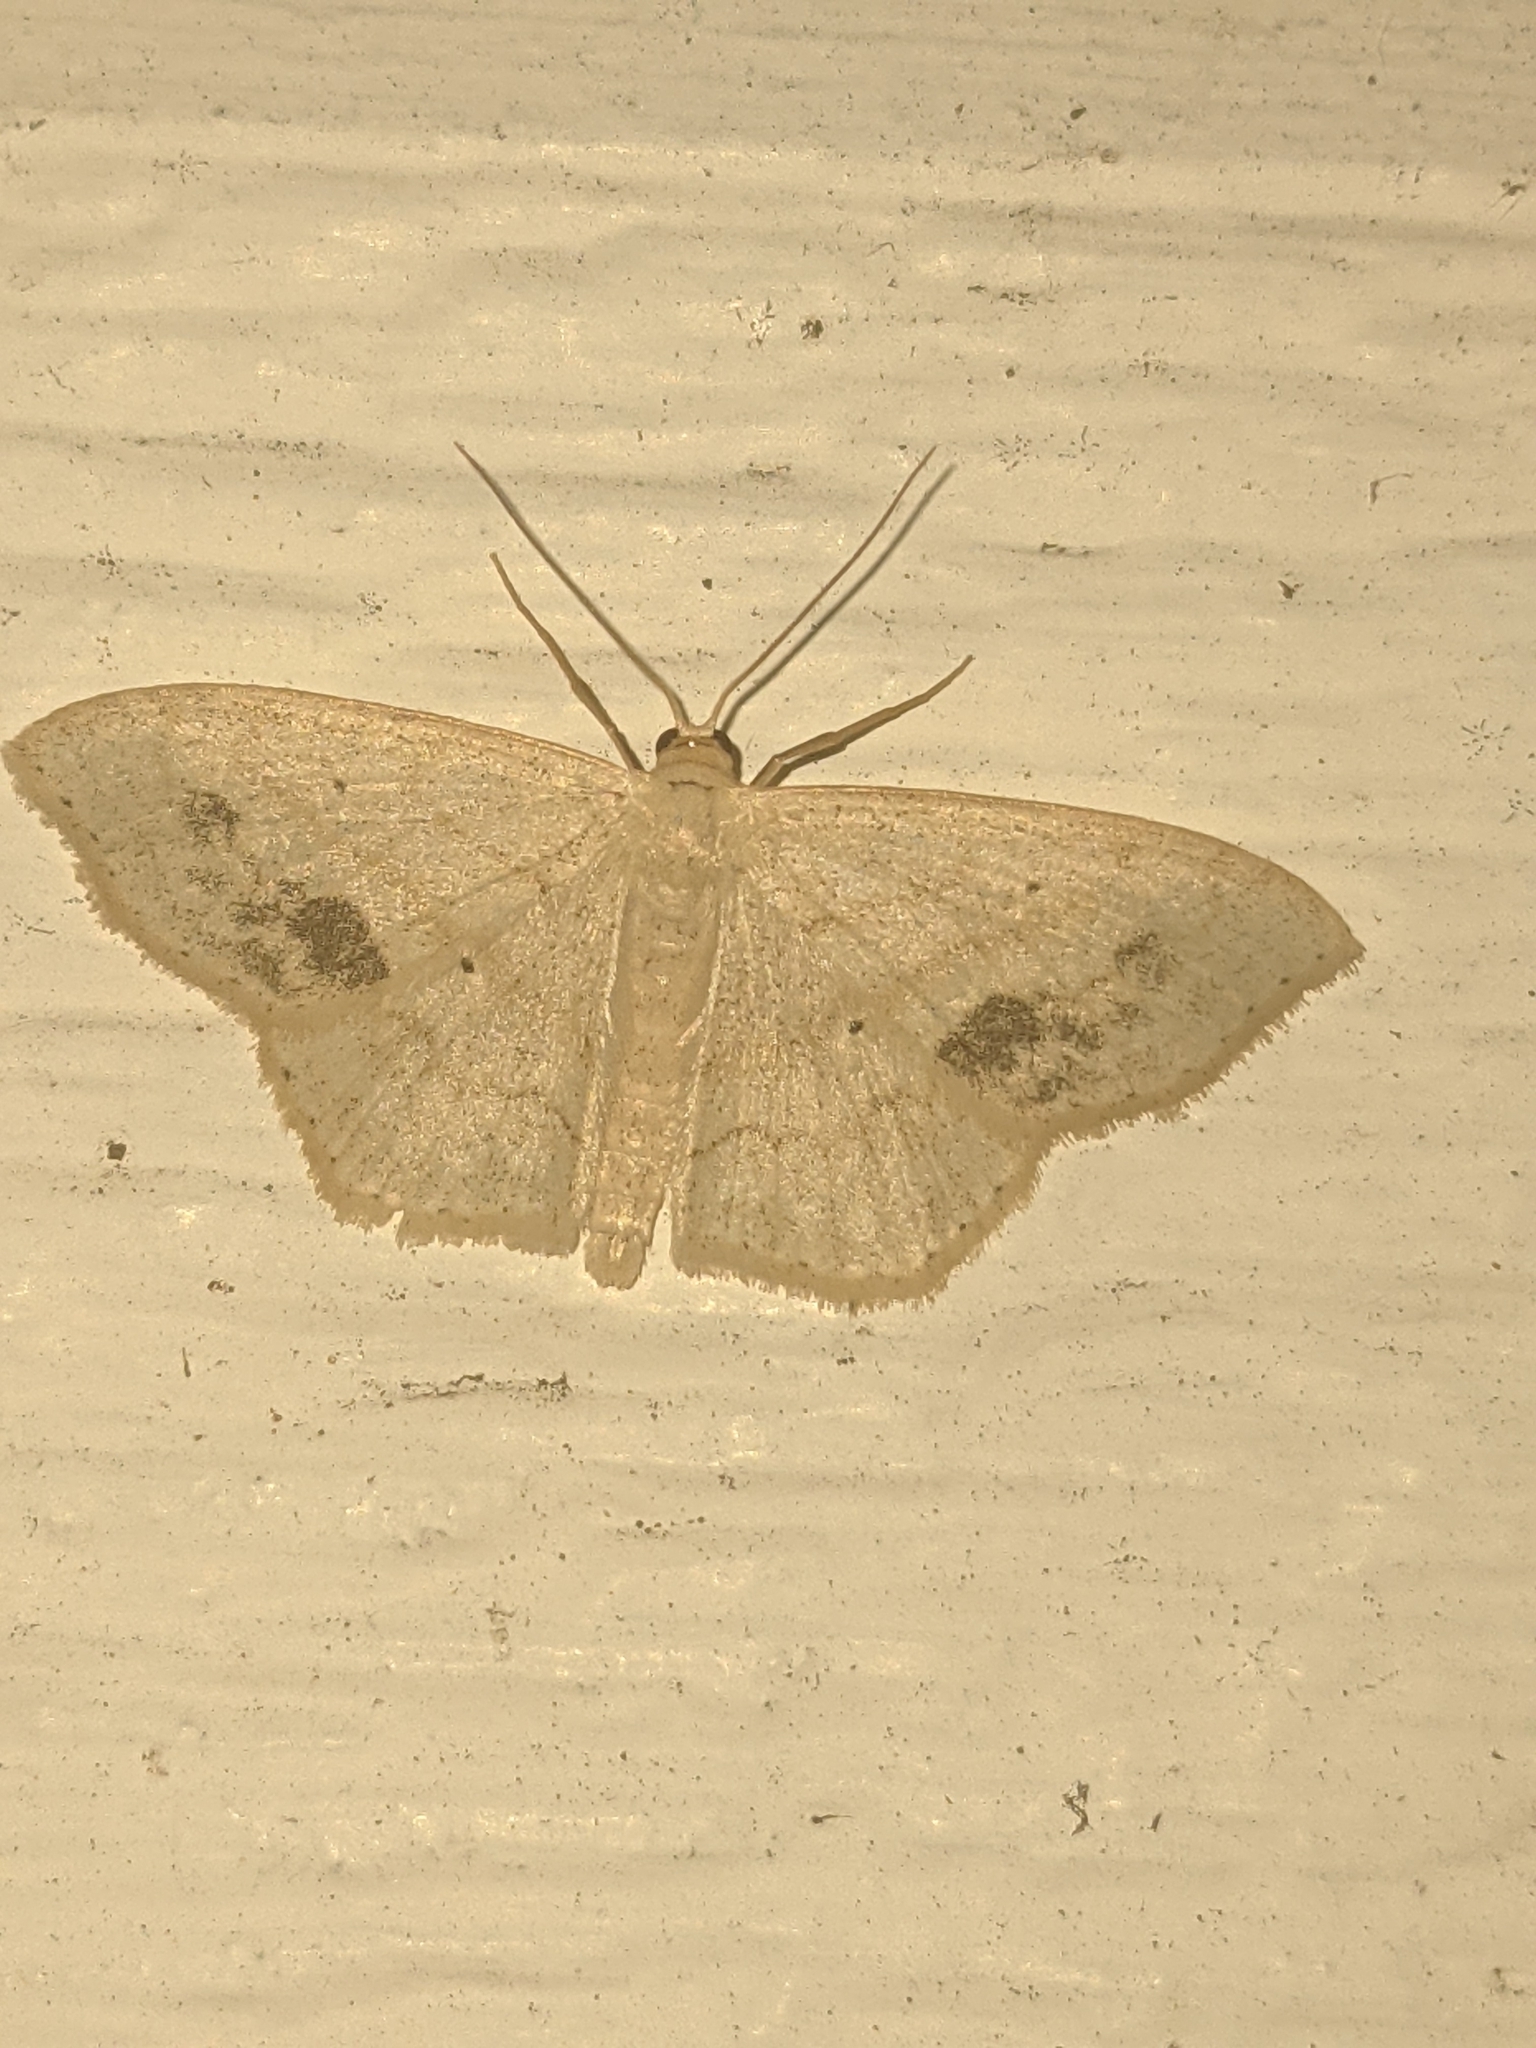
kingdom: Animalia
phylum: Arthropoda
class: Insecta
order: Lepidoptera
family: Geometridae
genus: Scopula
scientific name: Scopula limboundata
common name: Large lace border
